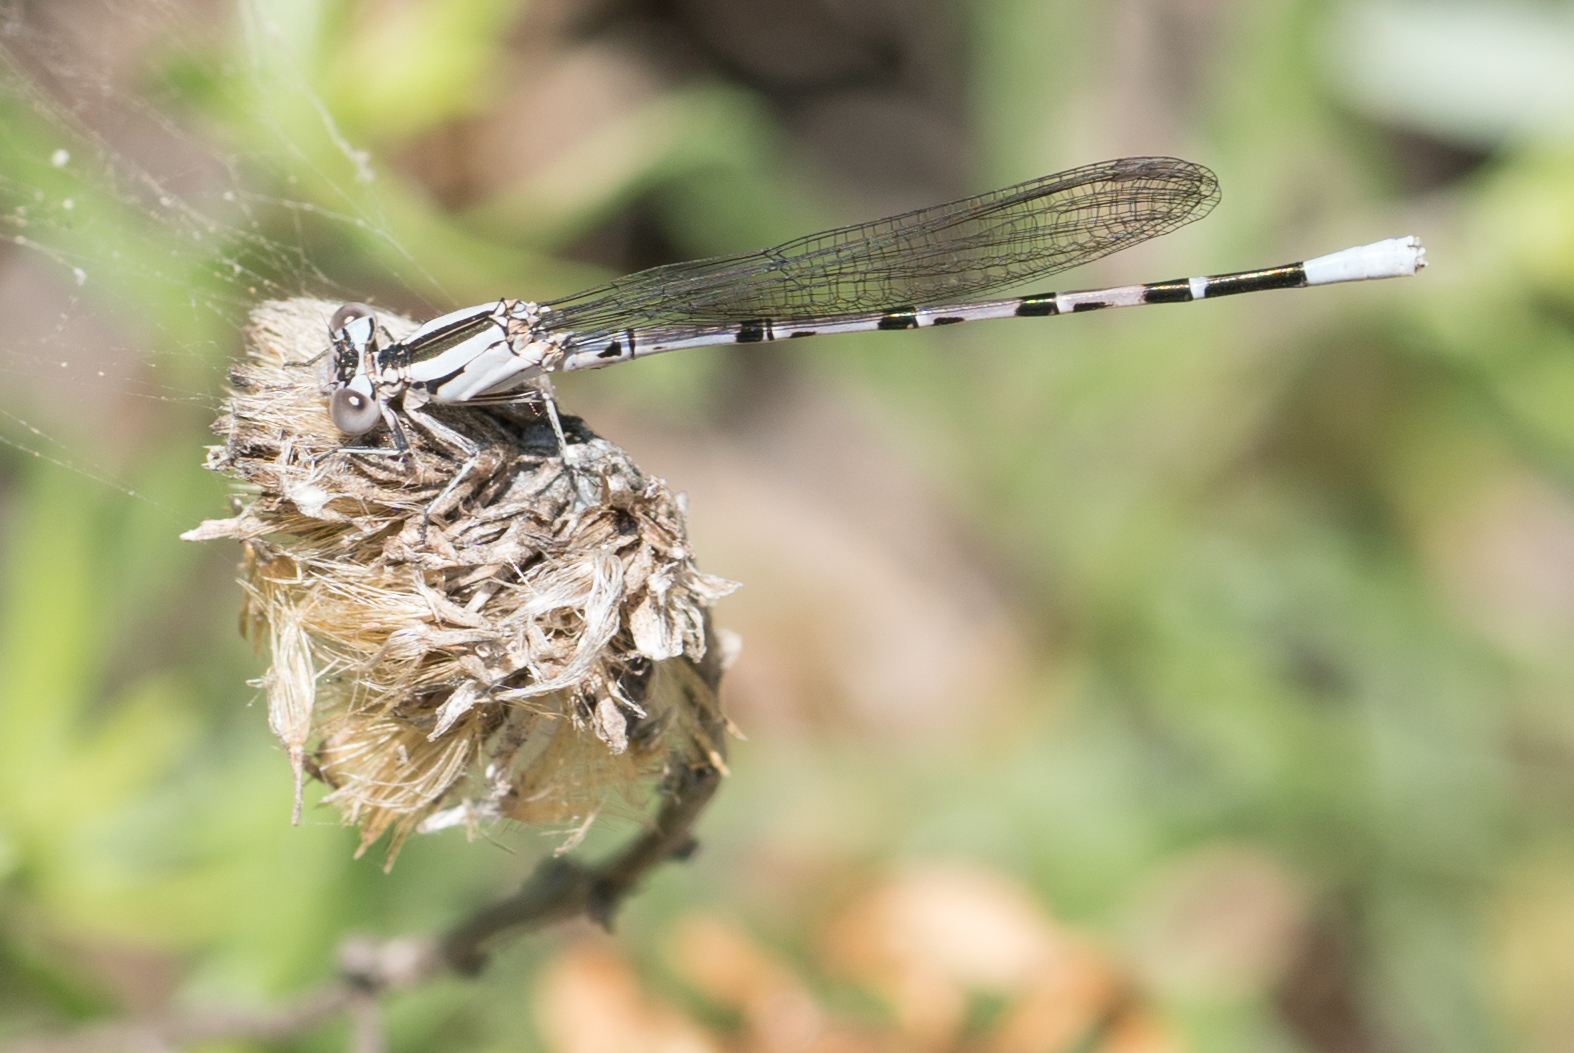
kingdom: Animalia
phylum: Arthropoda
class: Insecta
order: Odonata
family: Coenagrionidae
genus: Argia
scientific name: Argia vivida
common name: Vivid dancer
